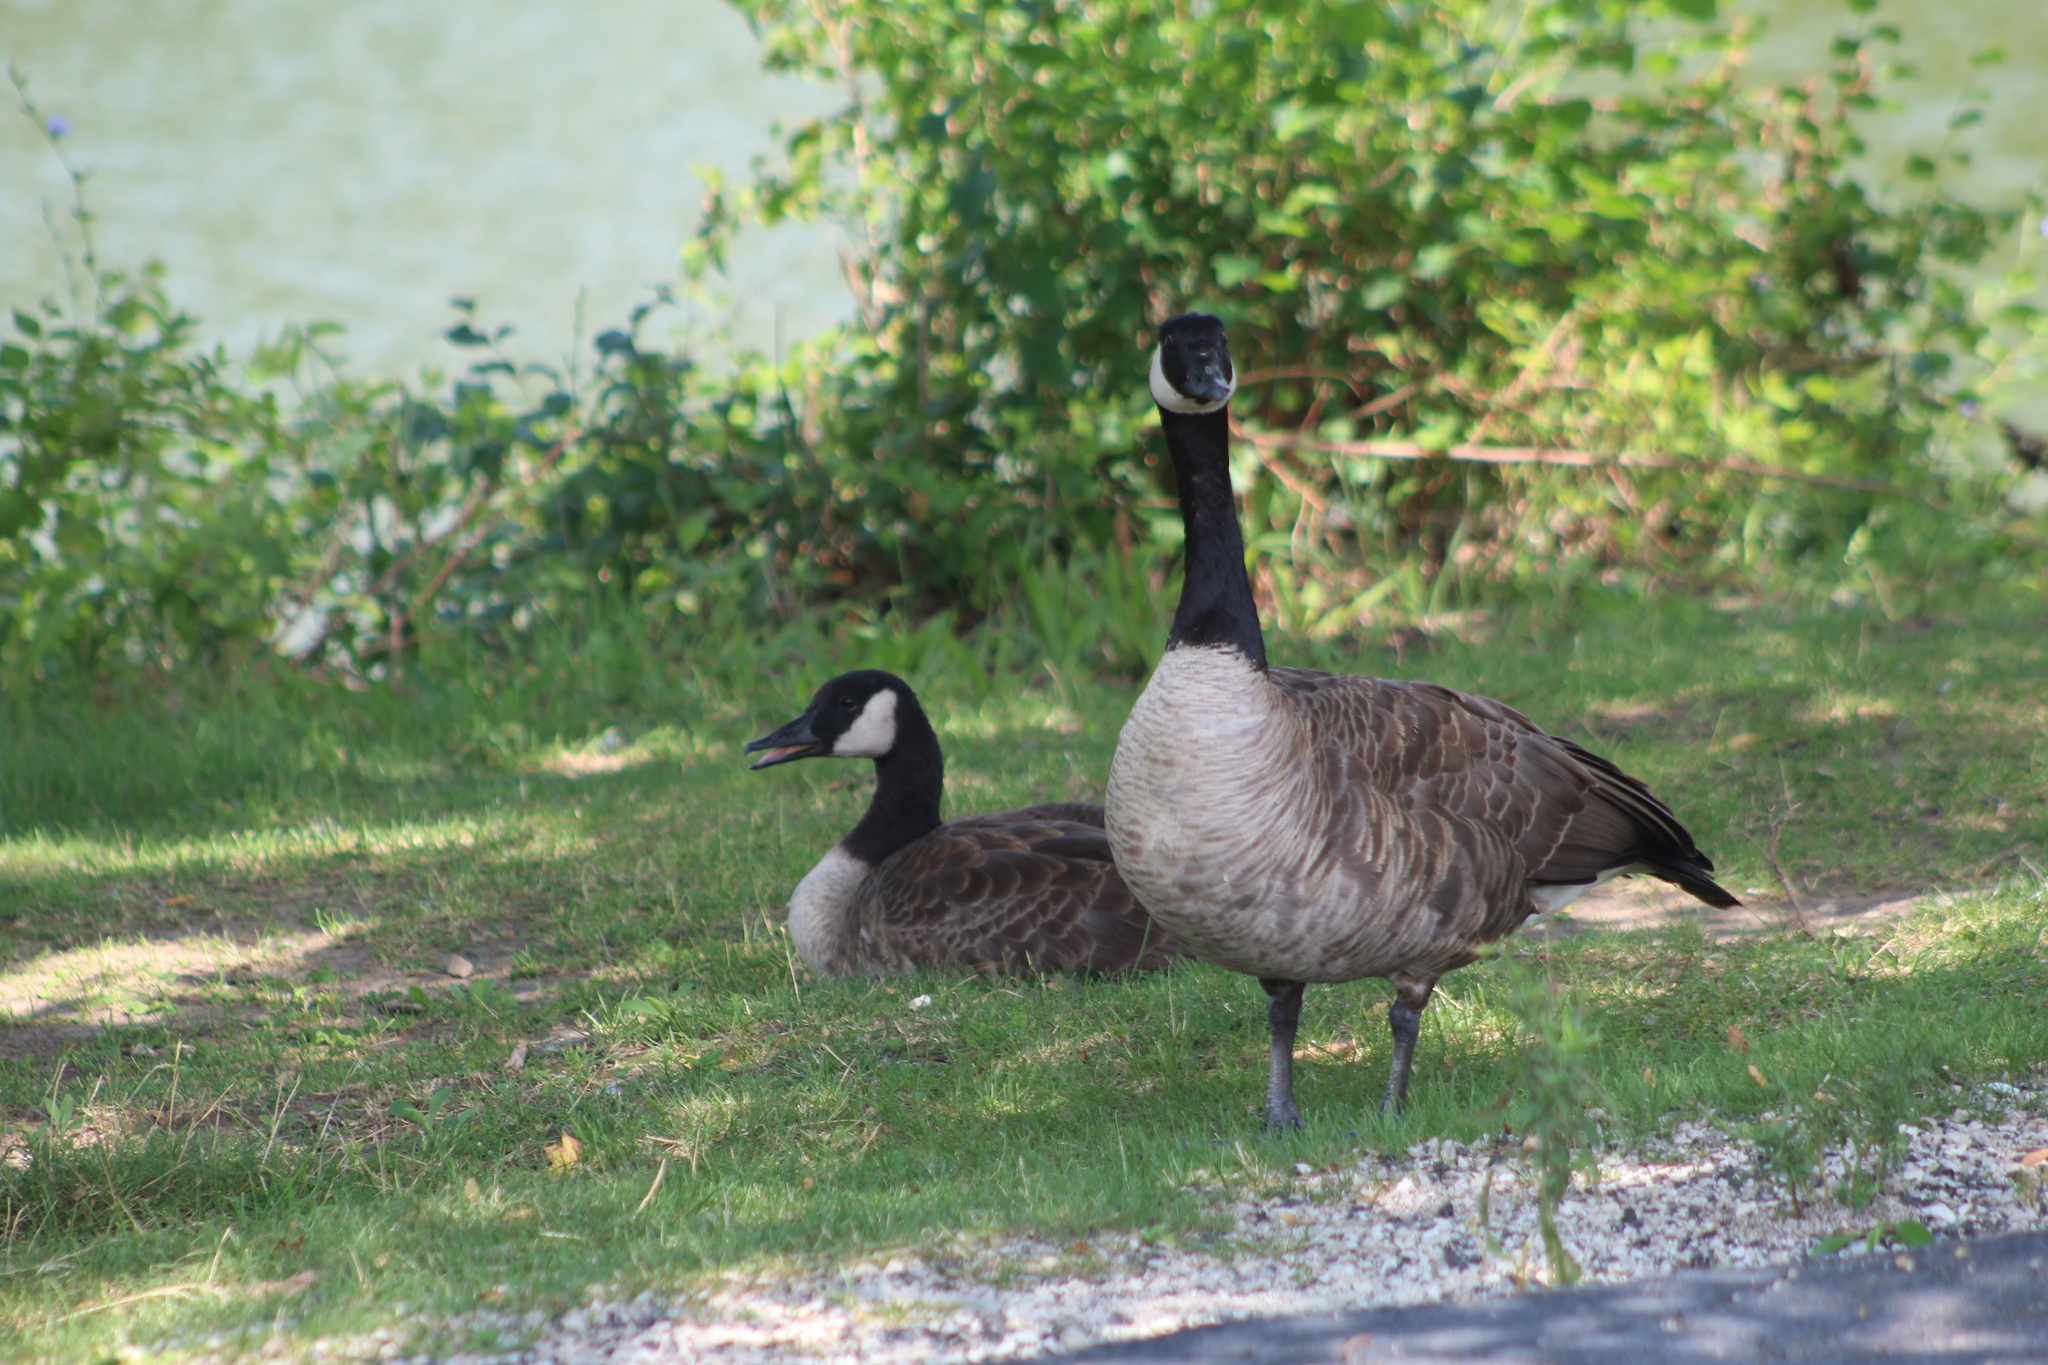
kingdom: Animalia
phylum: Chordata
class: Aves
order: Anseriformes
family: Anatidae
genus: Branta
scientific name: Branta canadensis
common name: Canada goose
